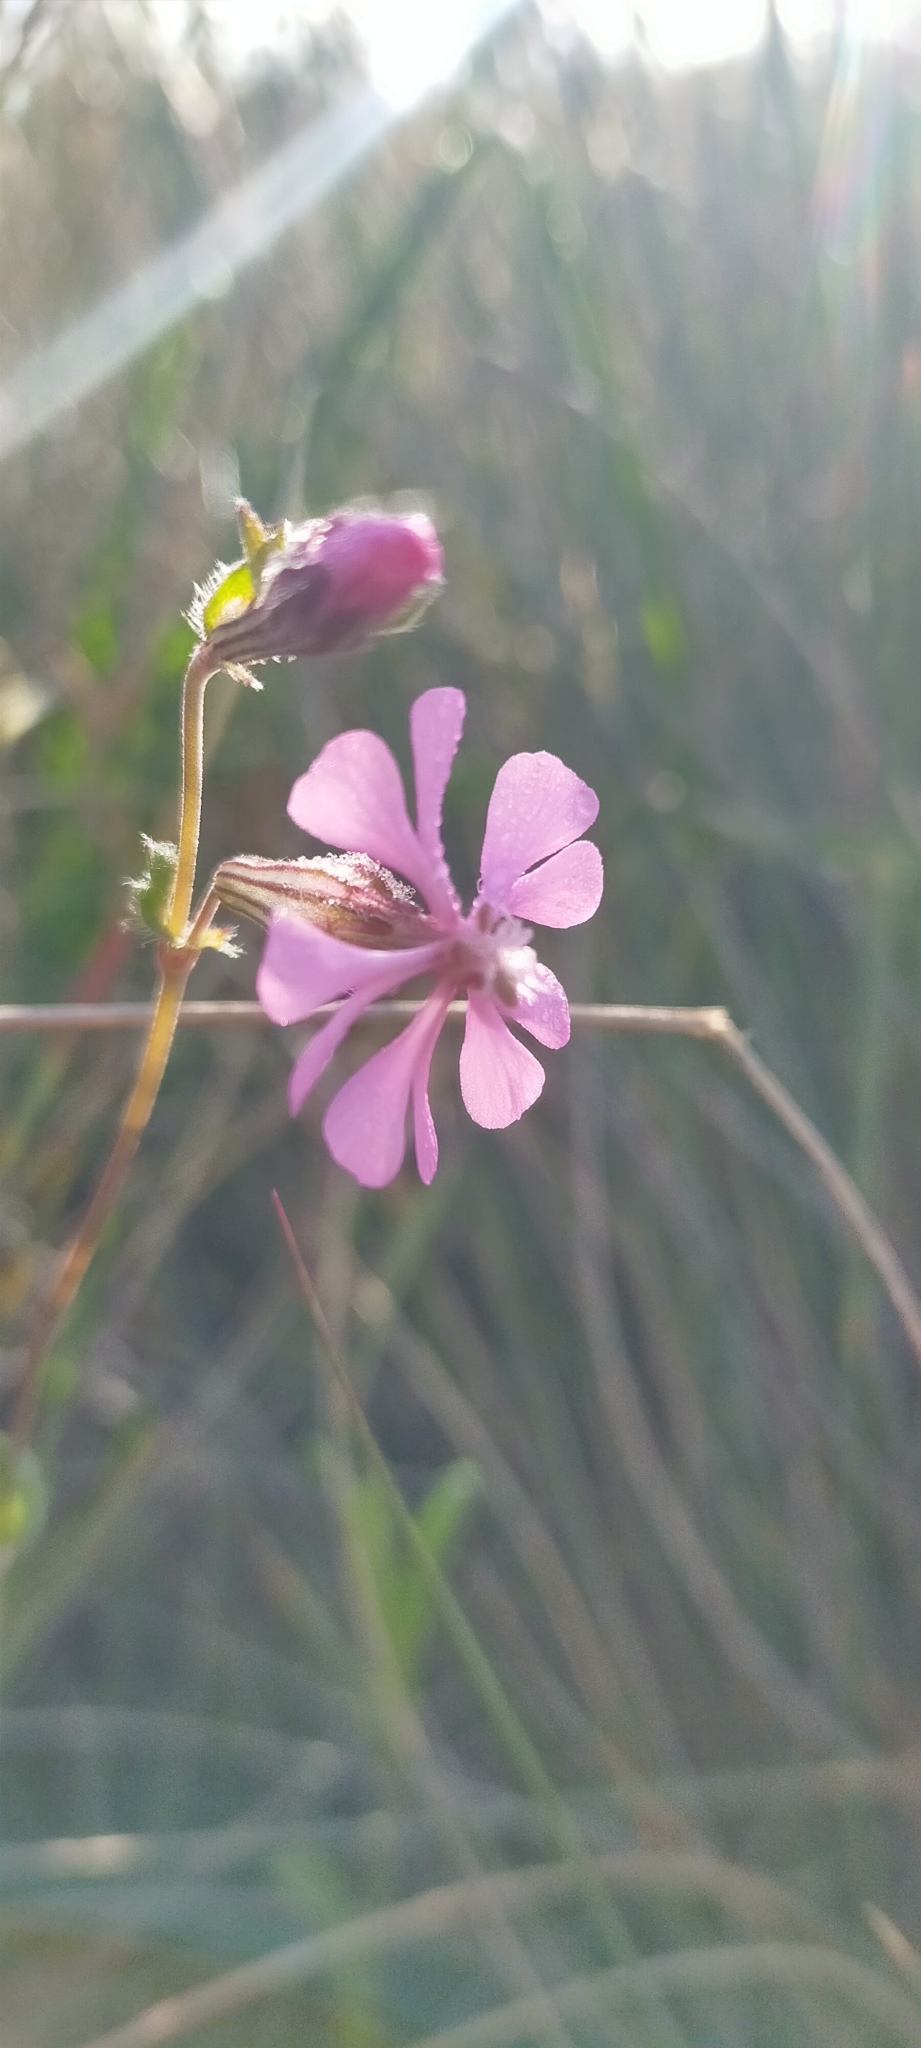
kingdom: Plantae
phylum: Tracheophyta
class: Magnoliopsida
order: Caryophyllales
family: Caryophyllaceae
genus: Silene
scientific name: Silene colorata
